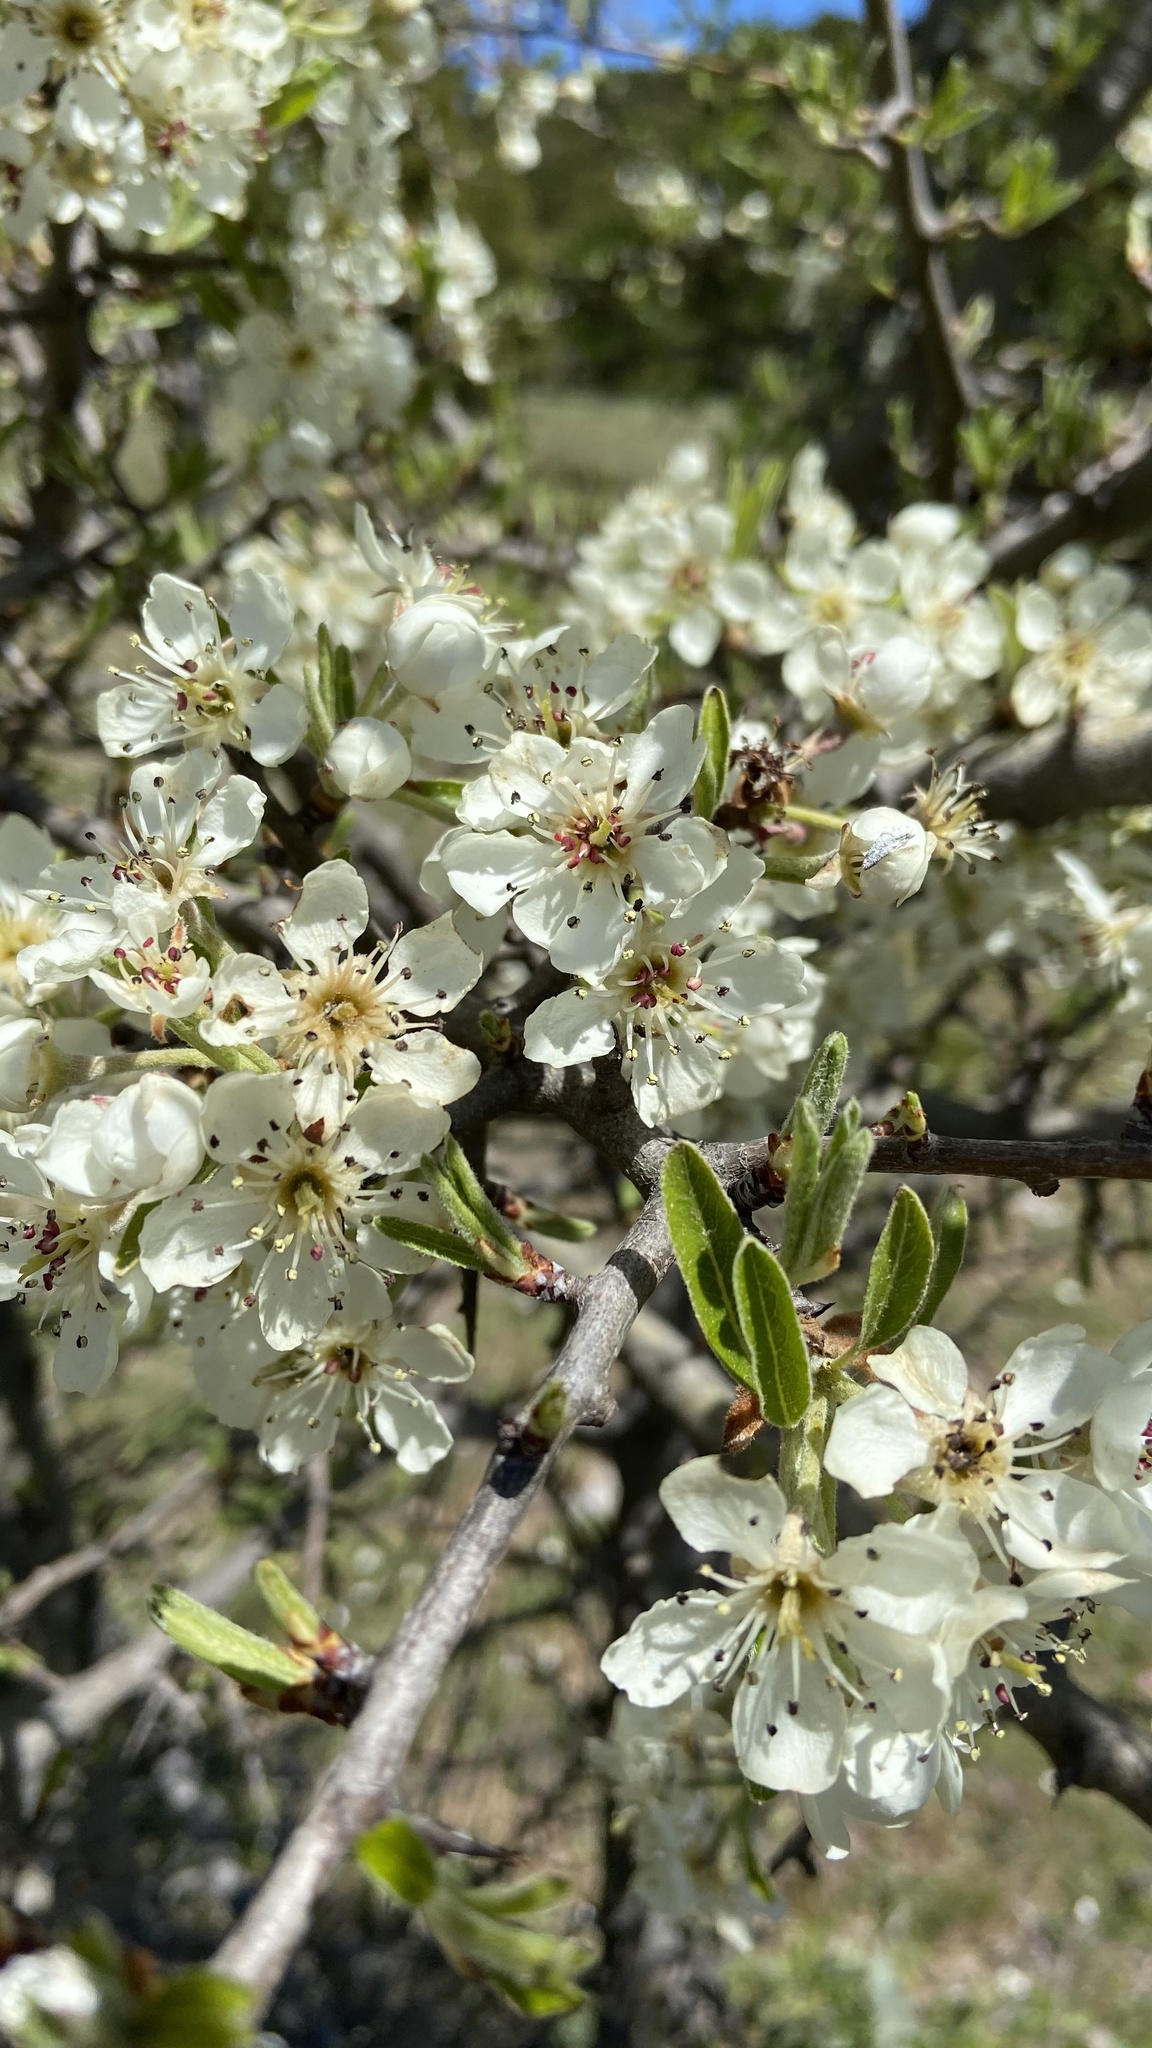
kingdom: Plantae
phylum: Tracheophyta
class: Magnoliopsida
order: Rosales
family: Rosaceae
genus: Pyrus
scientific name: Pyrus spinosa
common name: Almond-leaf pear
